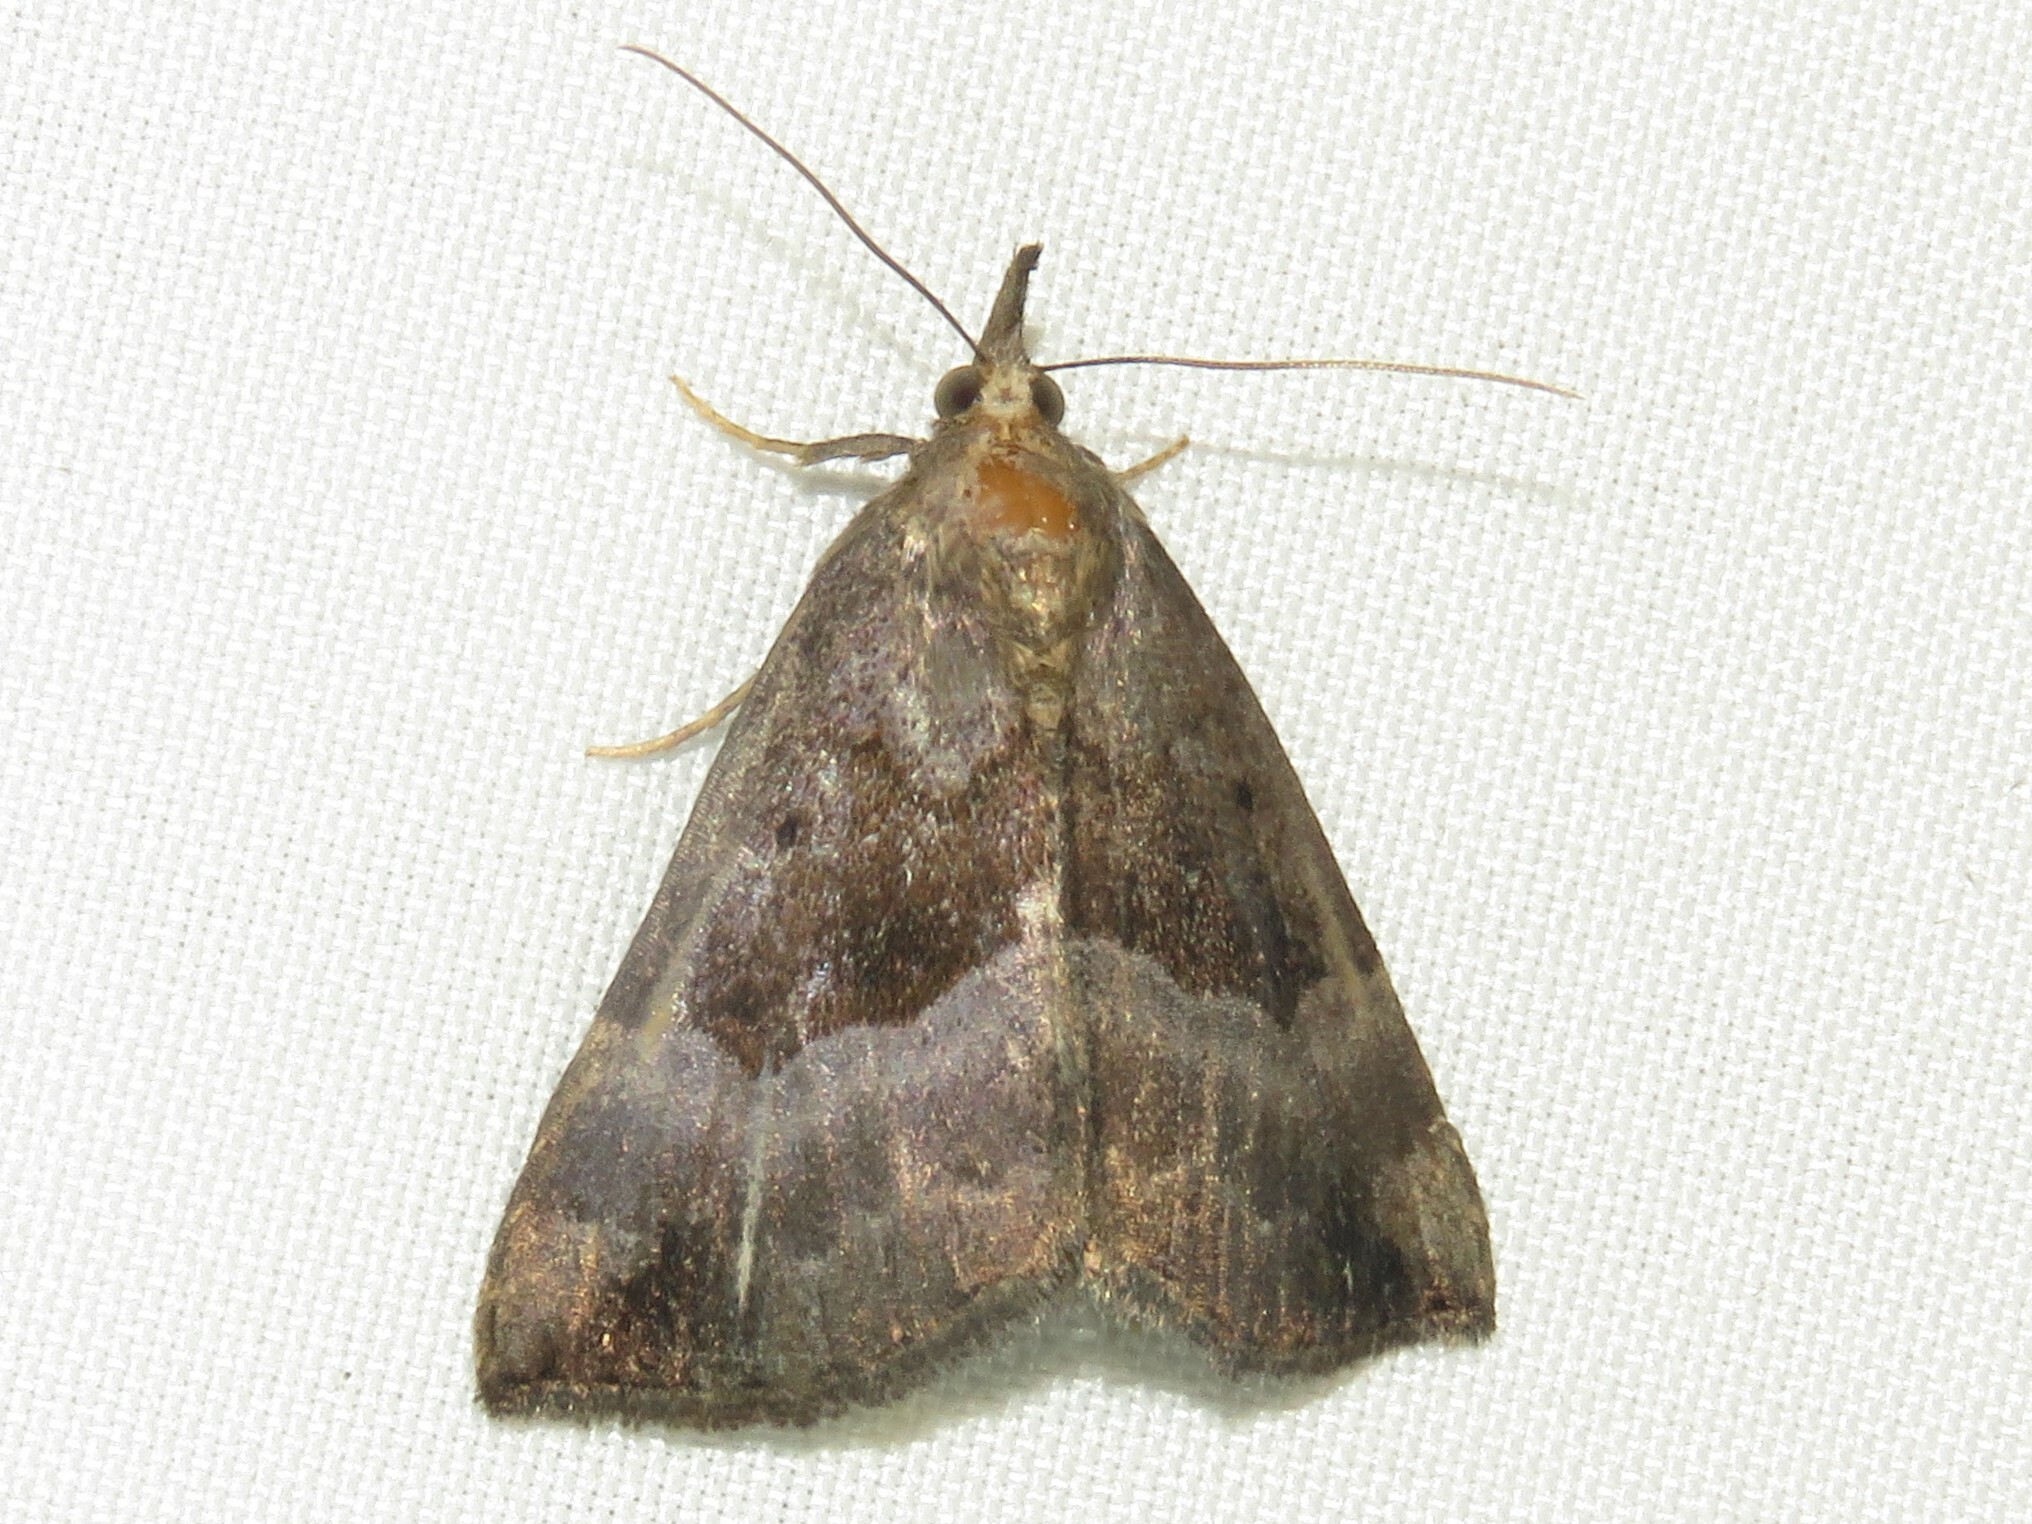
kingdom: Animalia
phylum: Arthropoda
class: Insecta
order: Lepidoptera
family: Erebidae
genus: Hypena
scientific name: Hypena madefactalis
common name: Gray-edged snout
